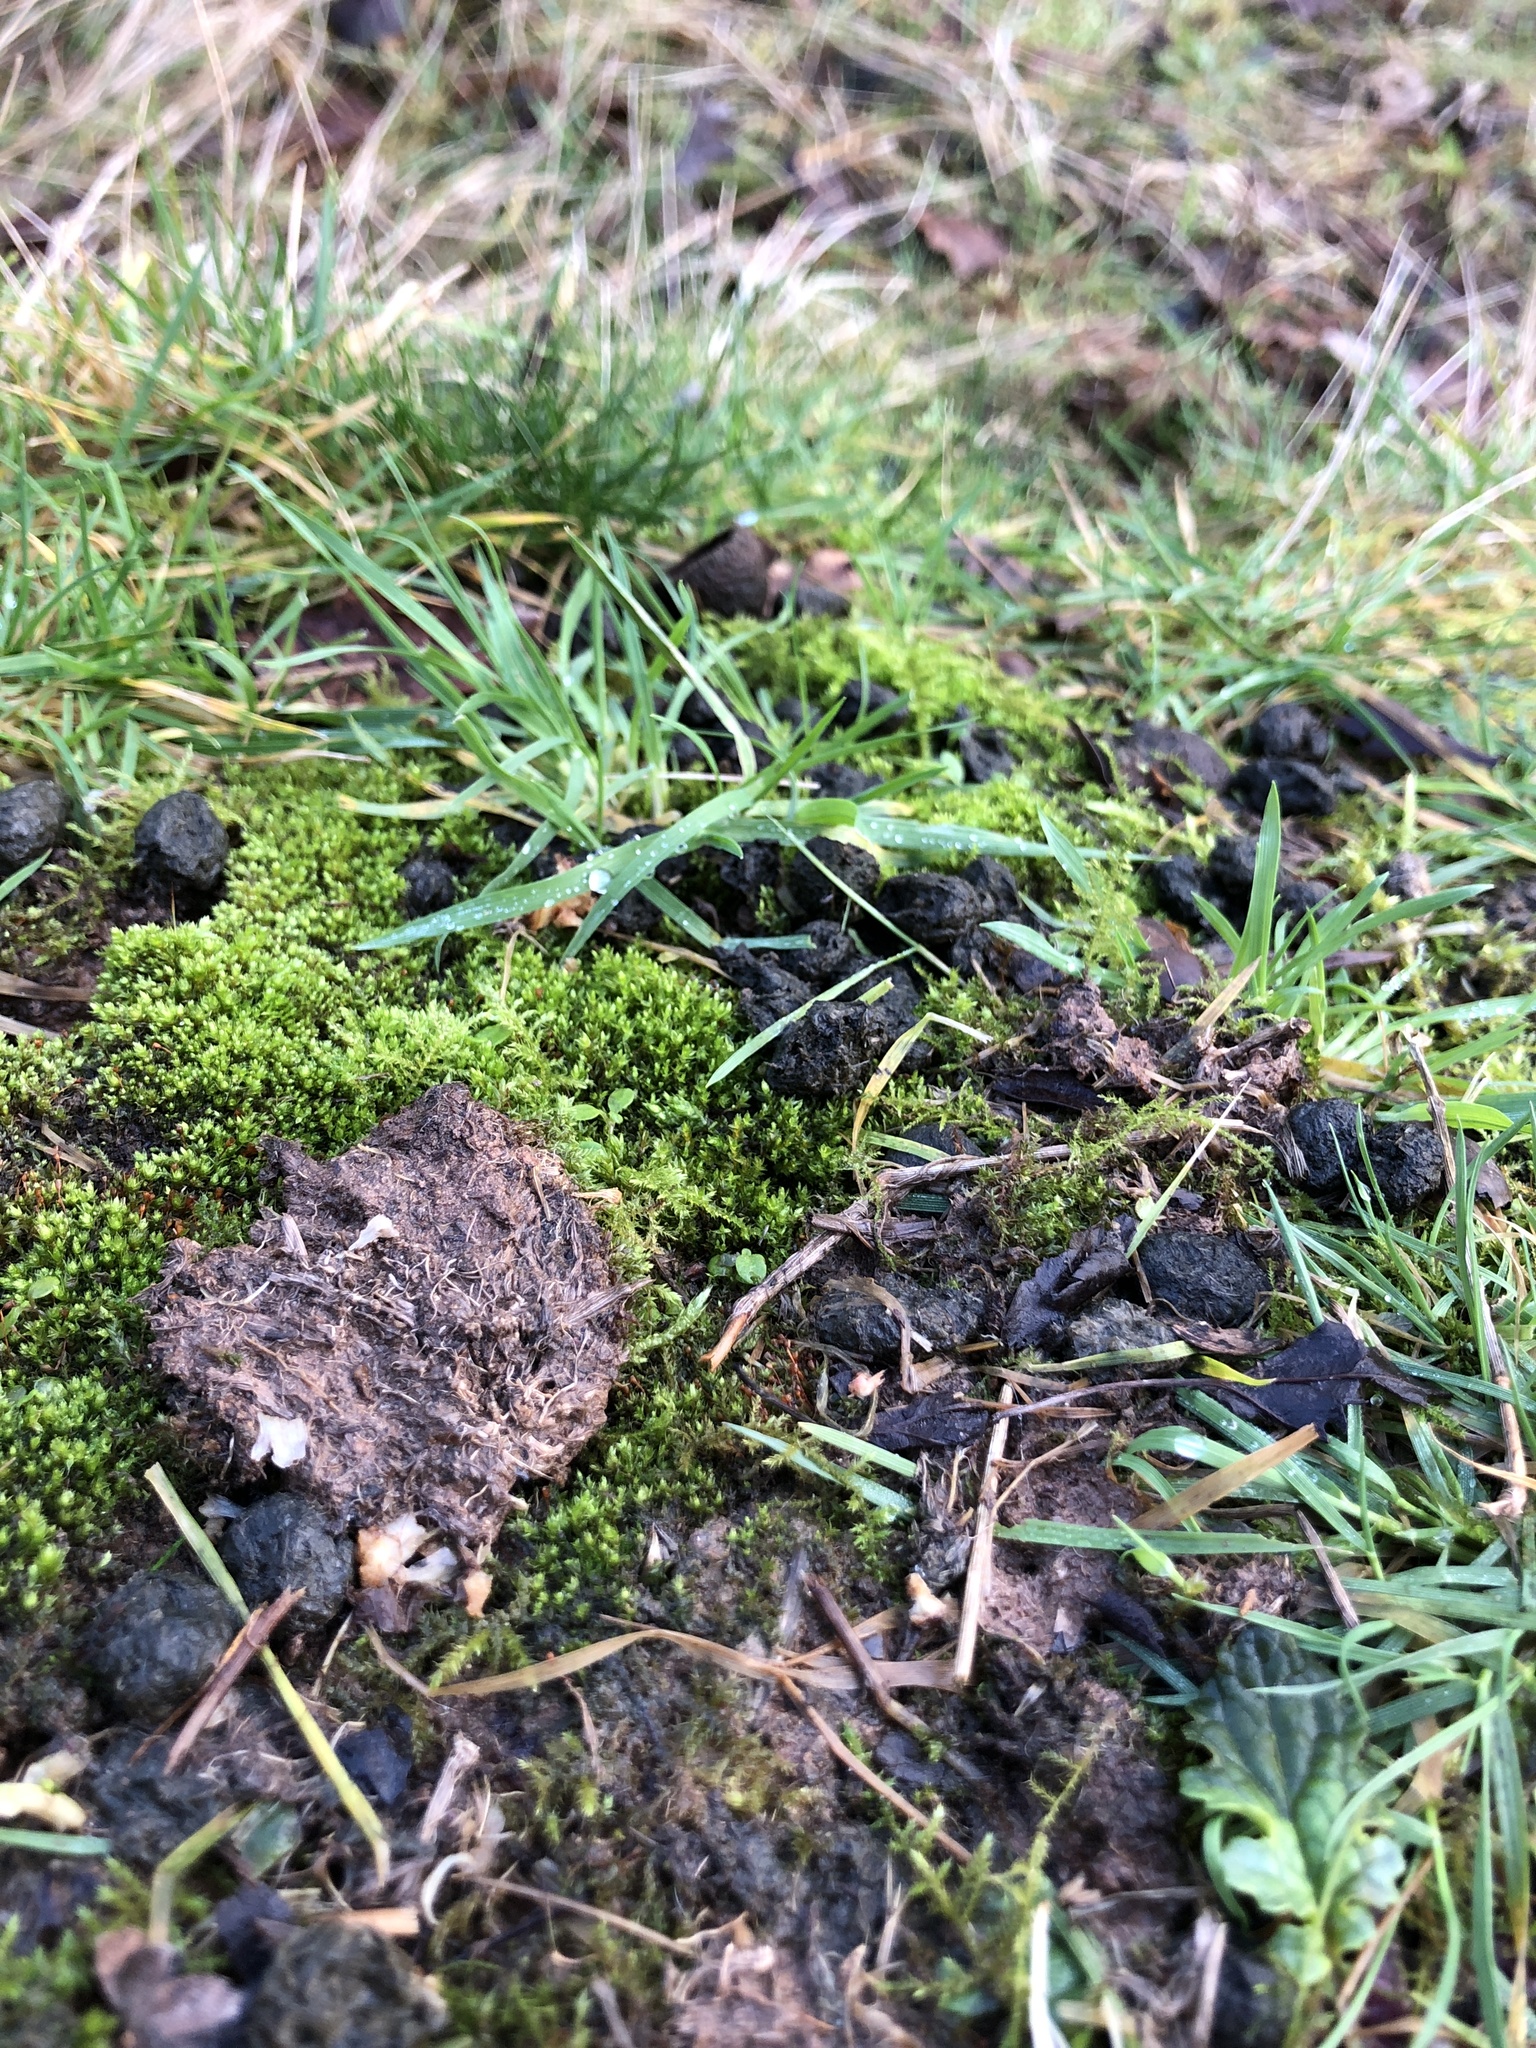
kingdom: Plantae
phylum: Bryophyta
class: Bryopsida
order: Bryales
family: Bryaceae
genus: Rosulabryum
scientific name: Rosulabryum rubens
